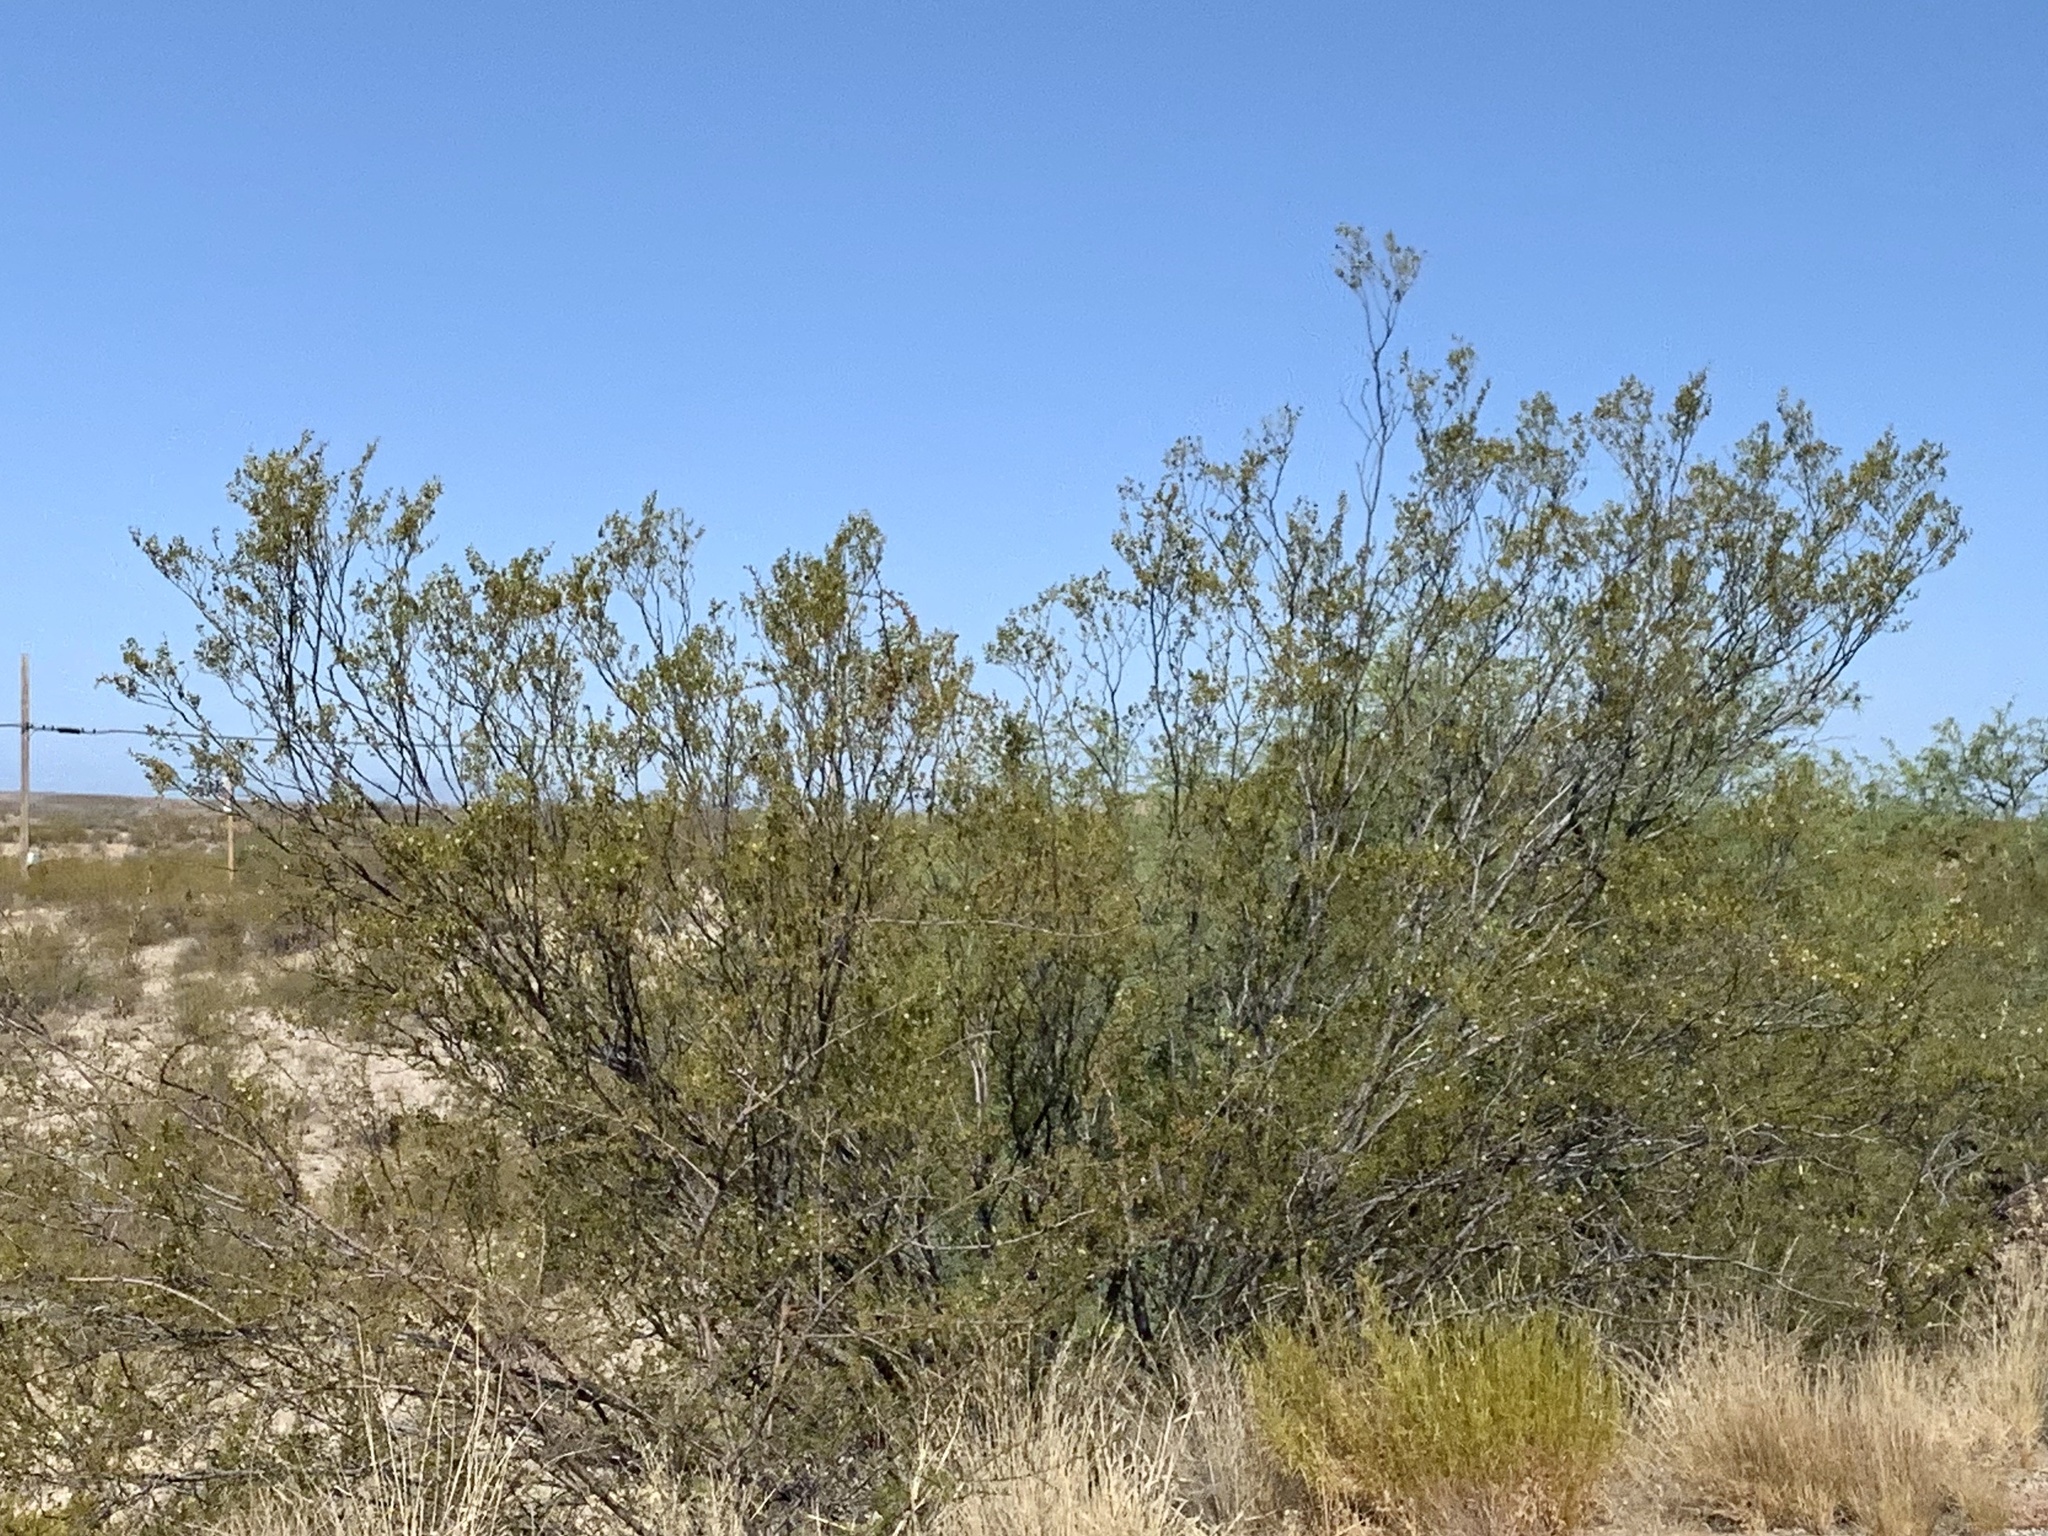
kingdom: Plantae
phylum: Tracheophyta
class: Magnoliopsida
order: Zygophyllales
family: Zygophyllaceae
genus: Larrea
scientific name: Larrea tridentata
